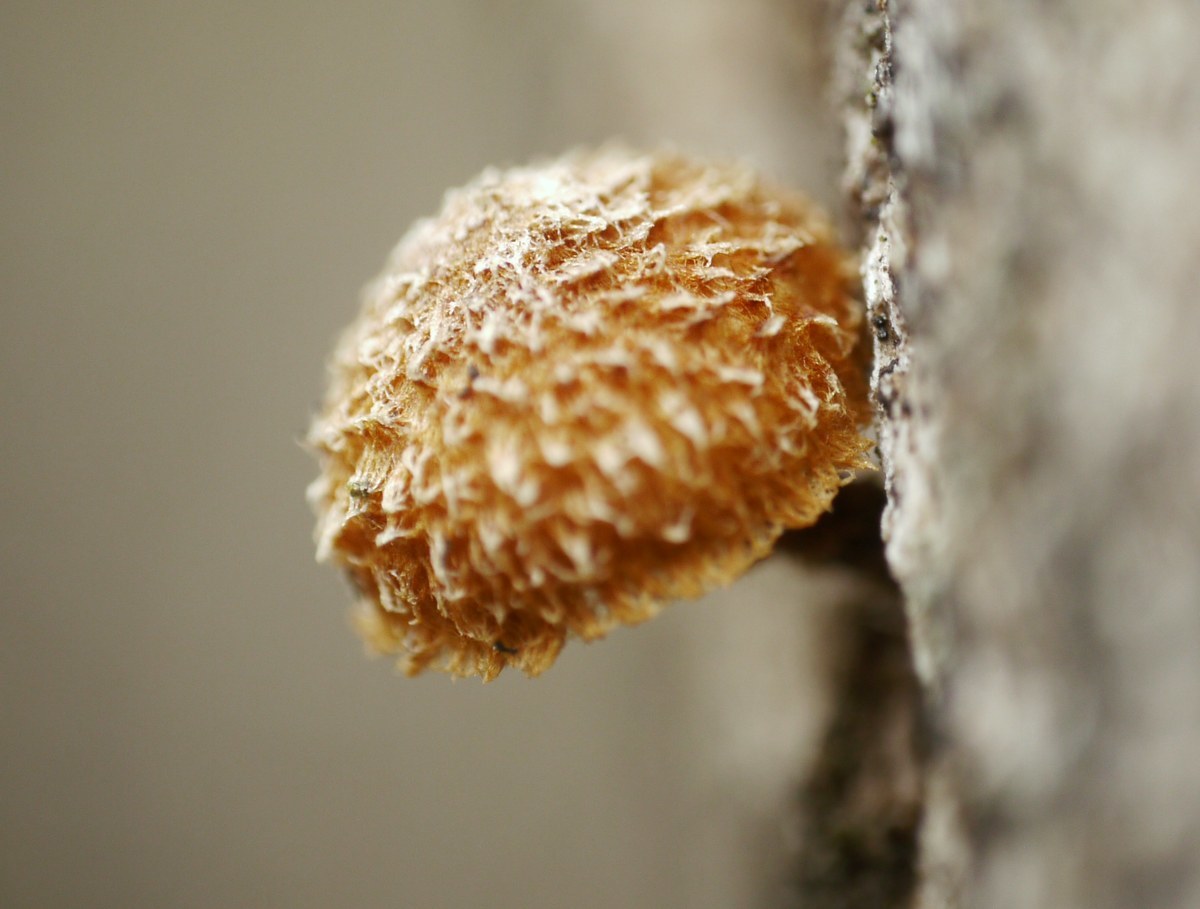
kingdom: Fungi
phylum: Basidiomycota
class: Agaricomycetes
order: Agaricales
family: Tubariaceae
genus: Phaeomarasmius
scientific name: Phaeomarasmius erinaceus
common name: Hedgehog scalycap
